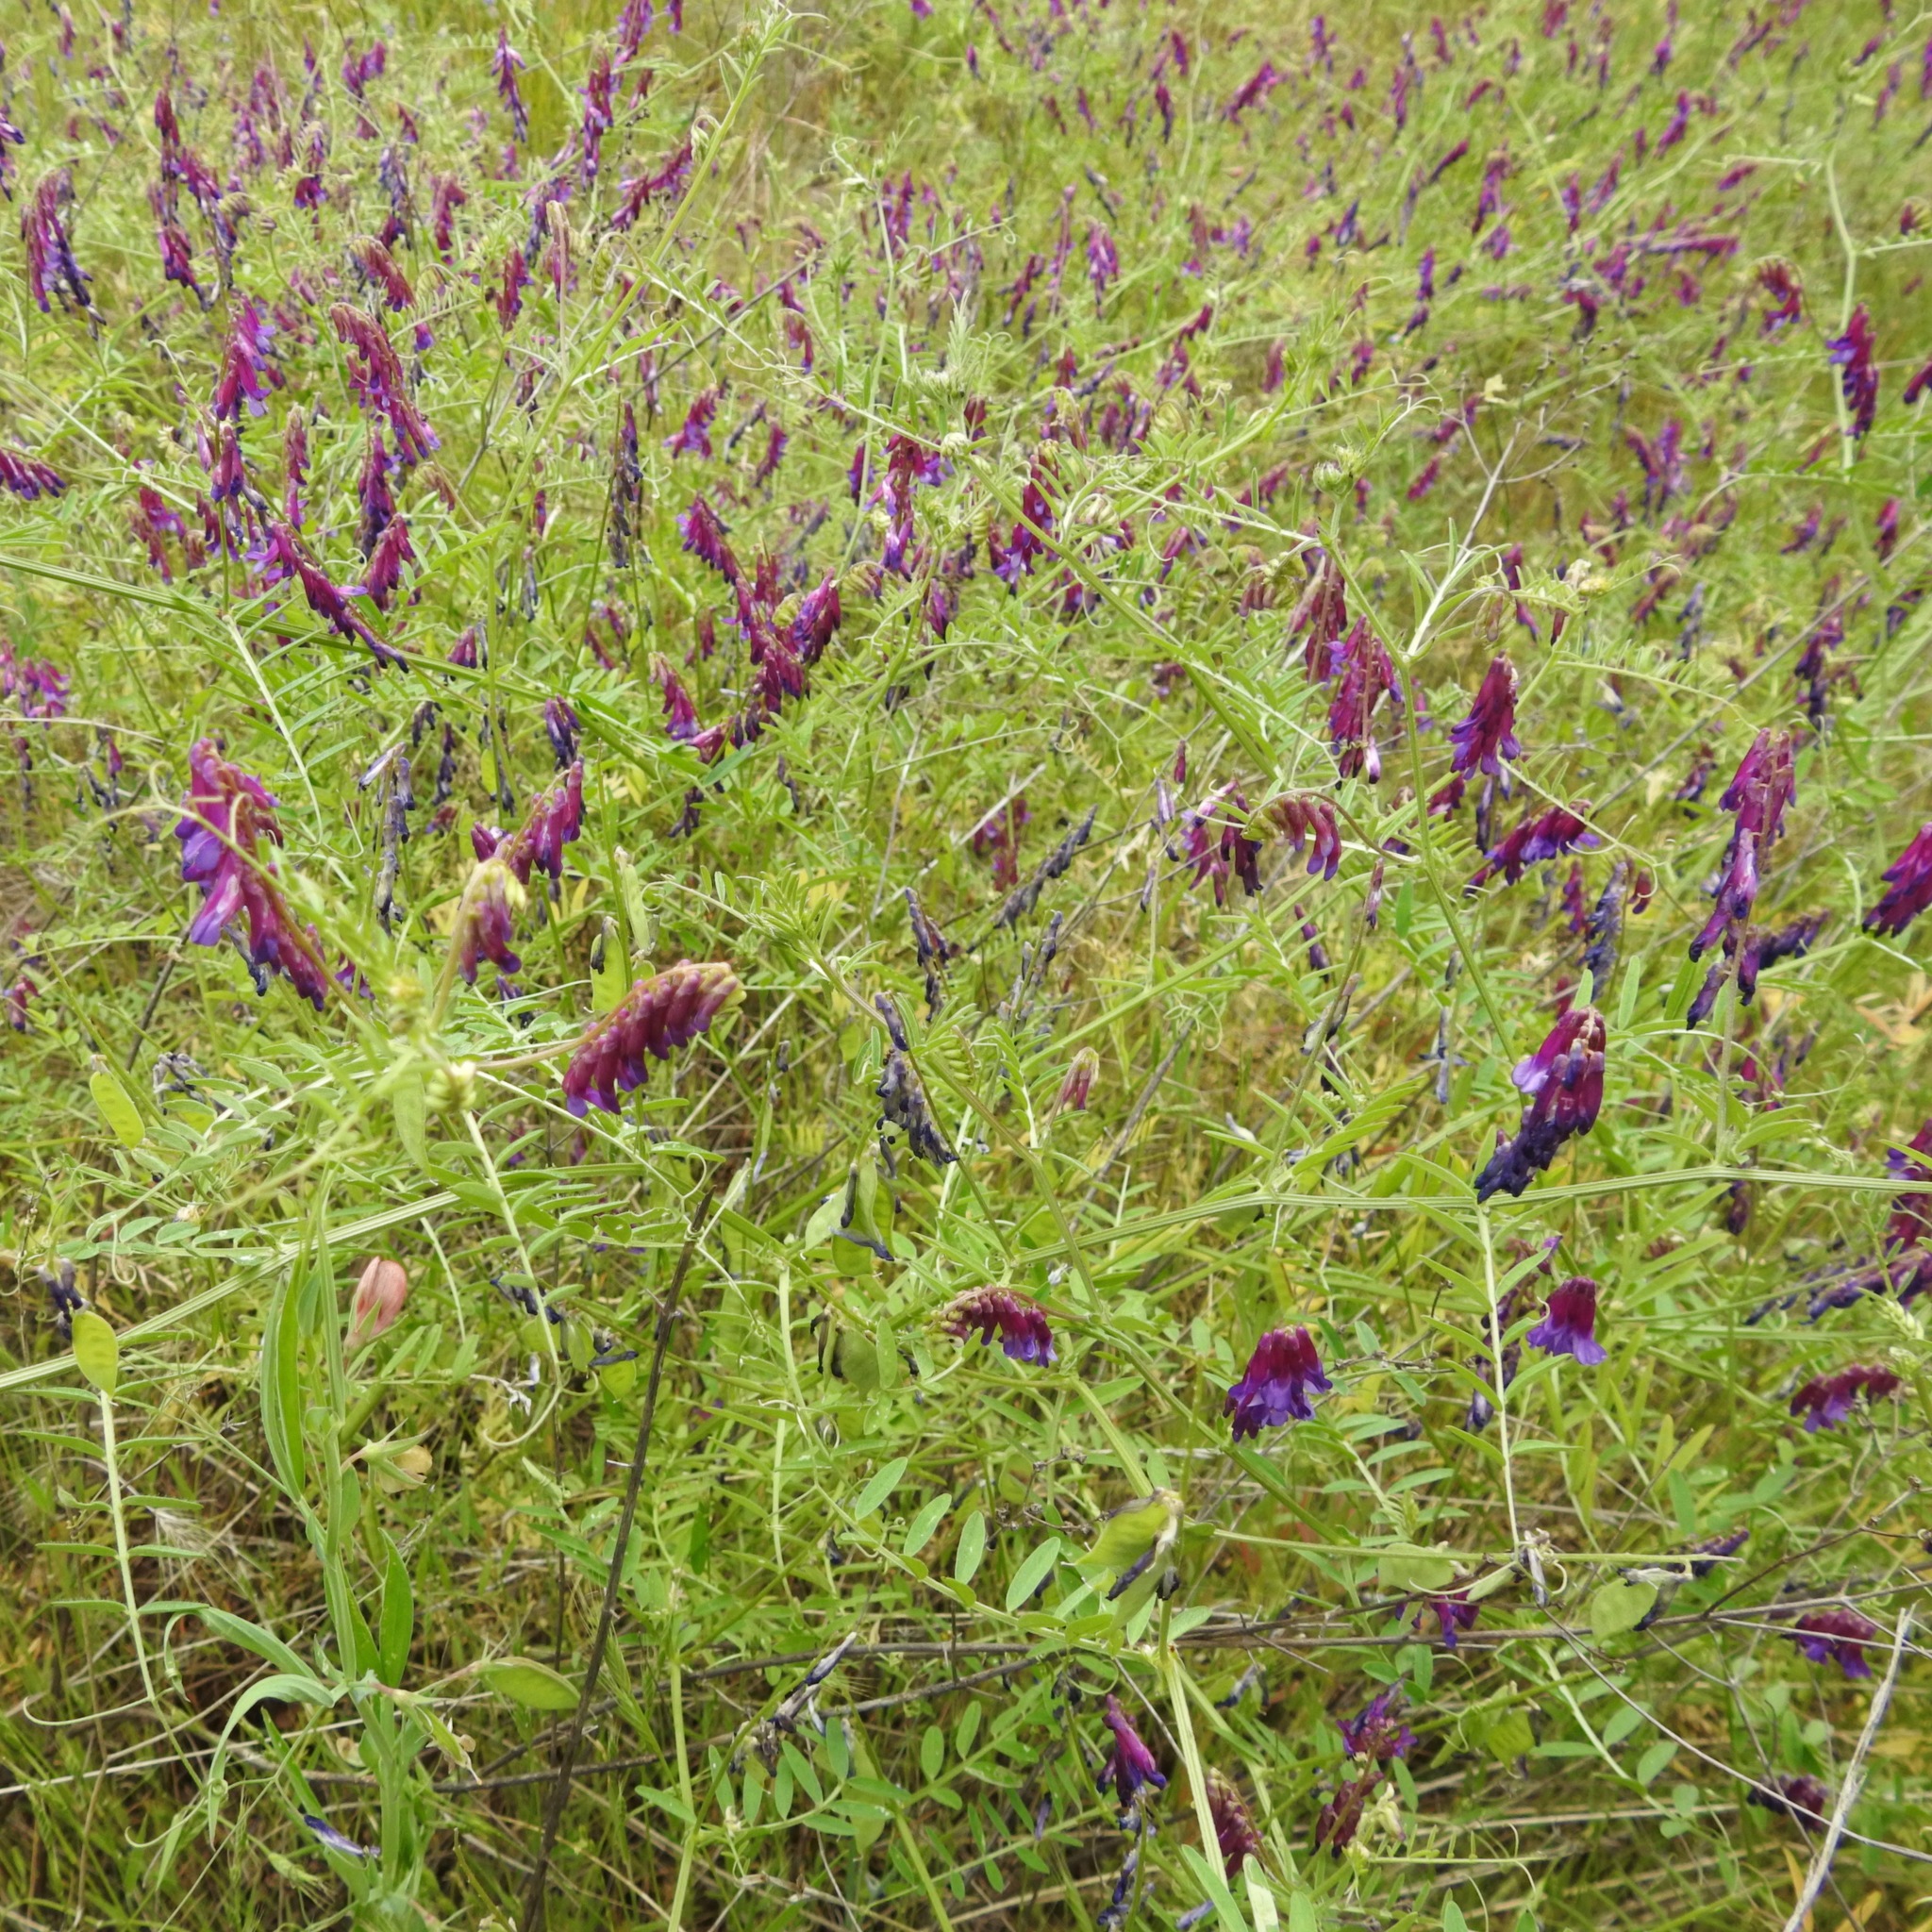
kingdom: Plantae
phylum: Tracheophyta
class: Magnoliopsida
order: Fabales
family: Fabaceae
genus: Vicia
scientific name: Vicia villosa
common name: Fodder vetch
